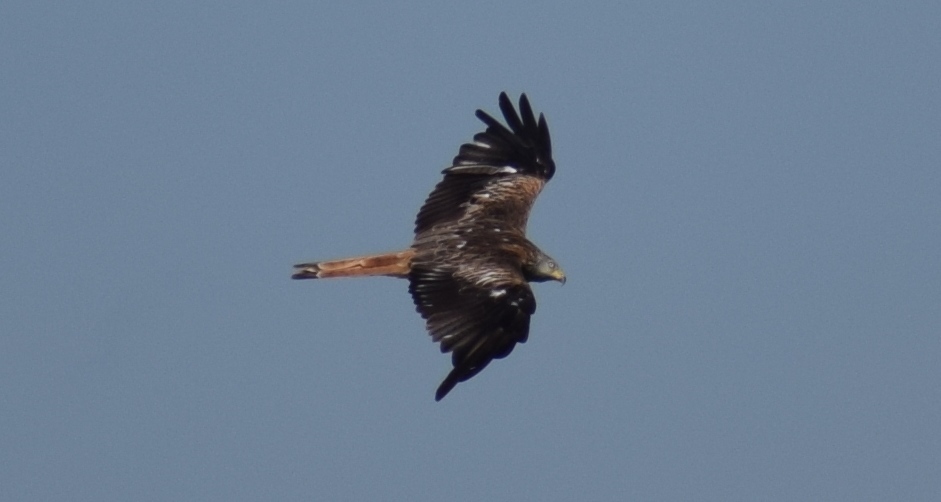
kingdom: Animalia
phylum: Chordata
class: Aves
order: Accipitriformes
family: Accipitridae
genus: Milvus
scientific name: Milvus milvus
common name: Red kite
